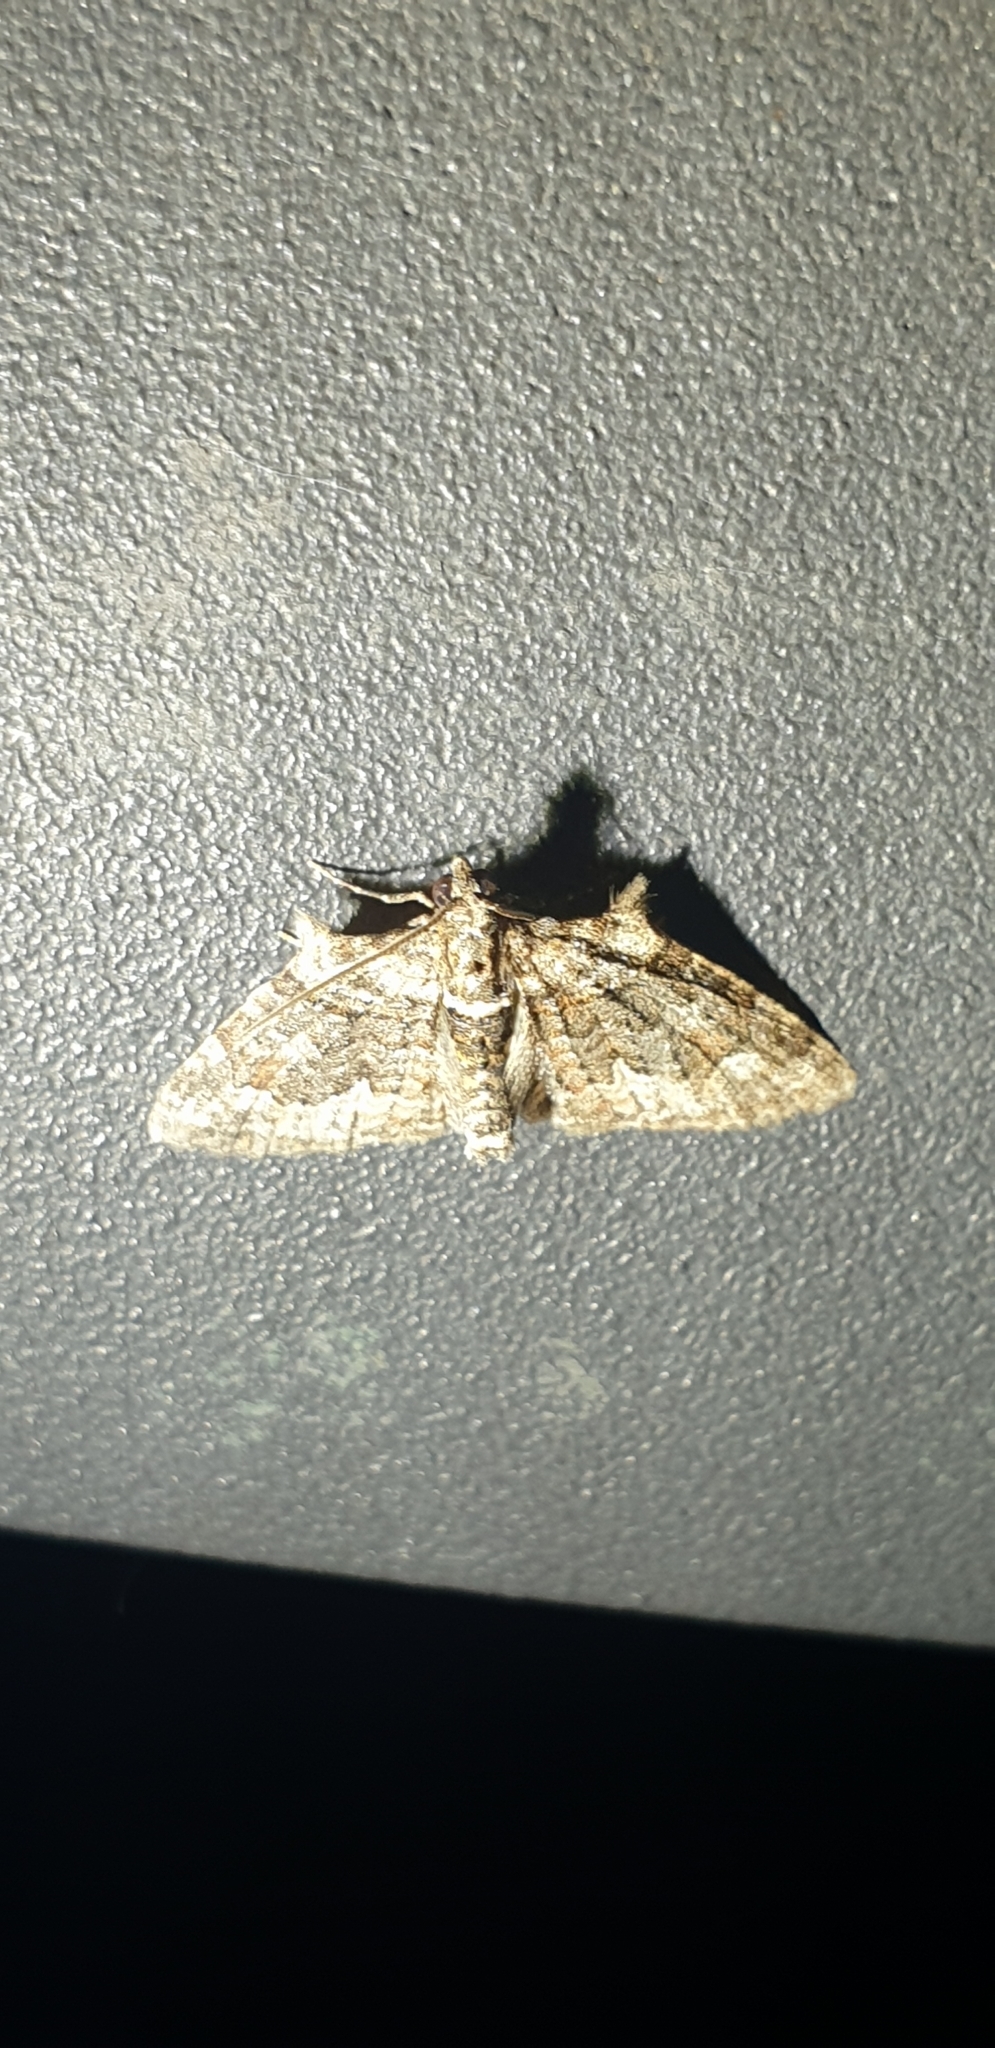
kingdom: Animalia
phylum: Arthropoda
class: Insecta
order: Lepidoptera
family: Geometridae
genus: Phrissogonus
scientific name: Phrissogonus laticostata
